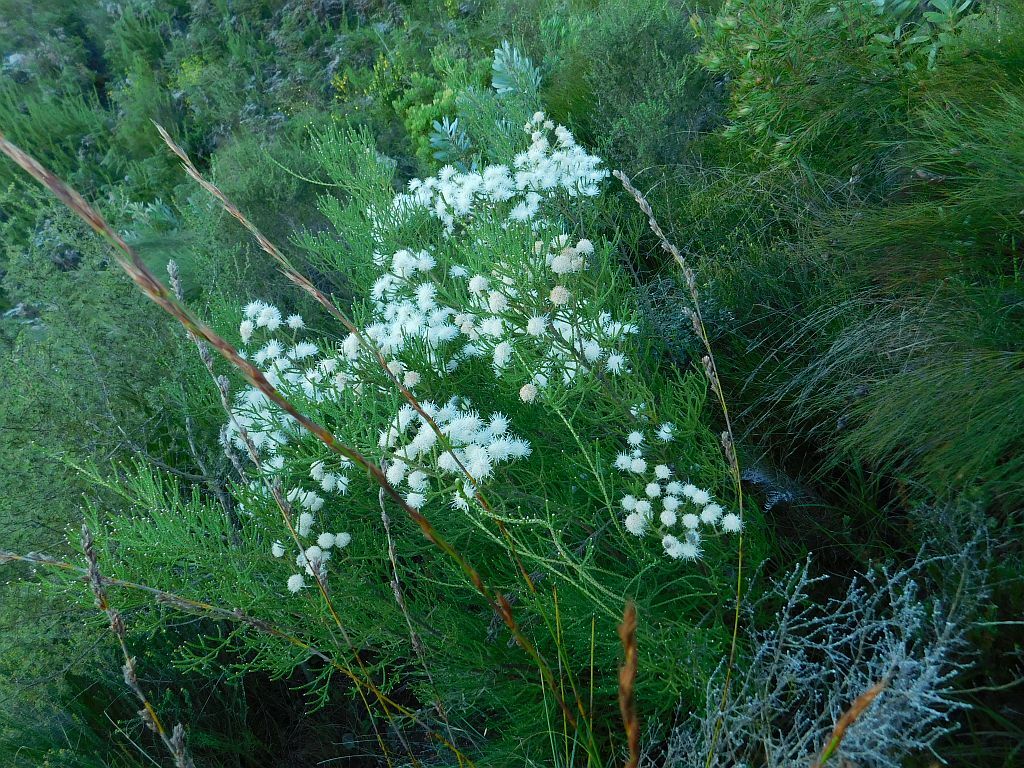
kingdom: Plantae
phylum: Tracheophyta
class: Magnoliopsida
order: Bruniales
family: Bruniaceae
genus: Brunia
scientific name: Brunia noduliflora
